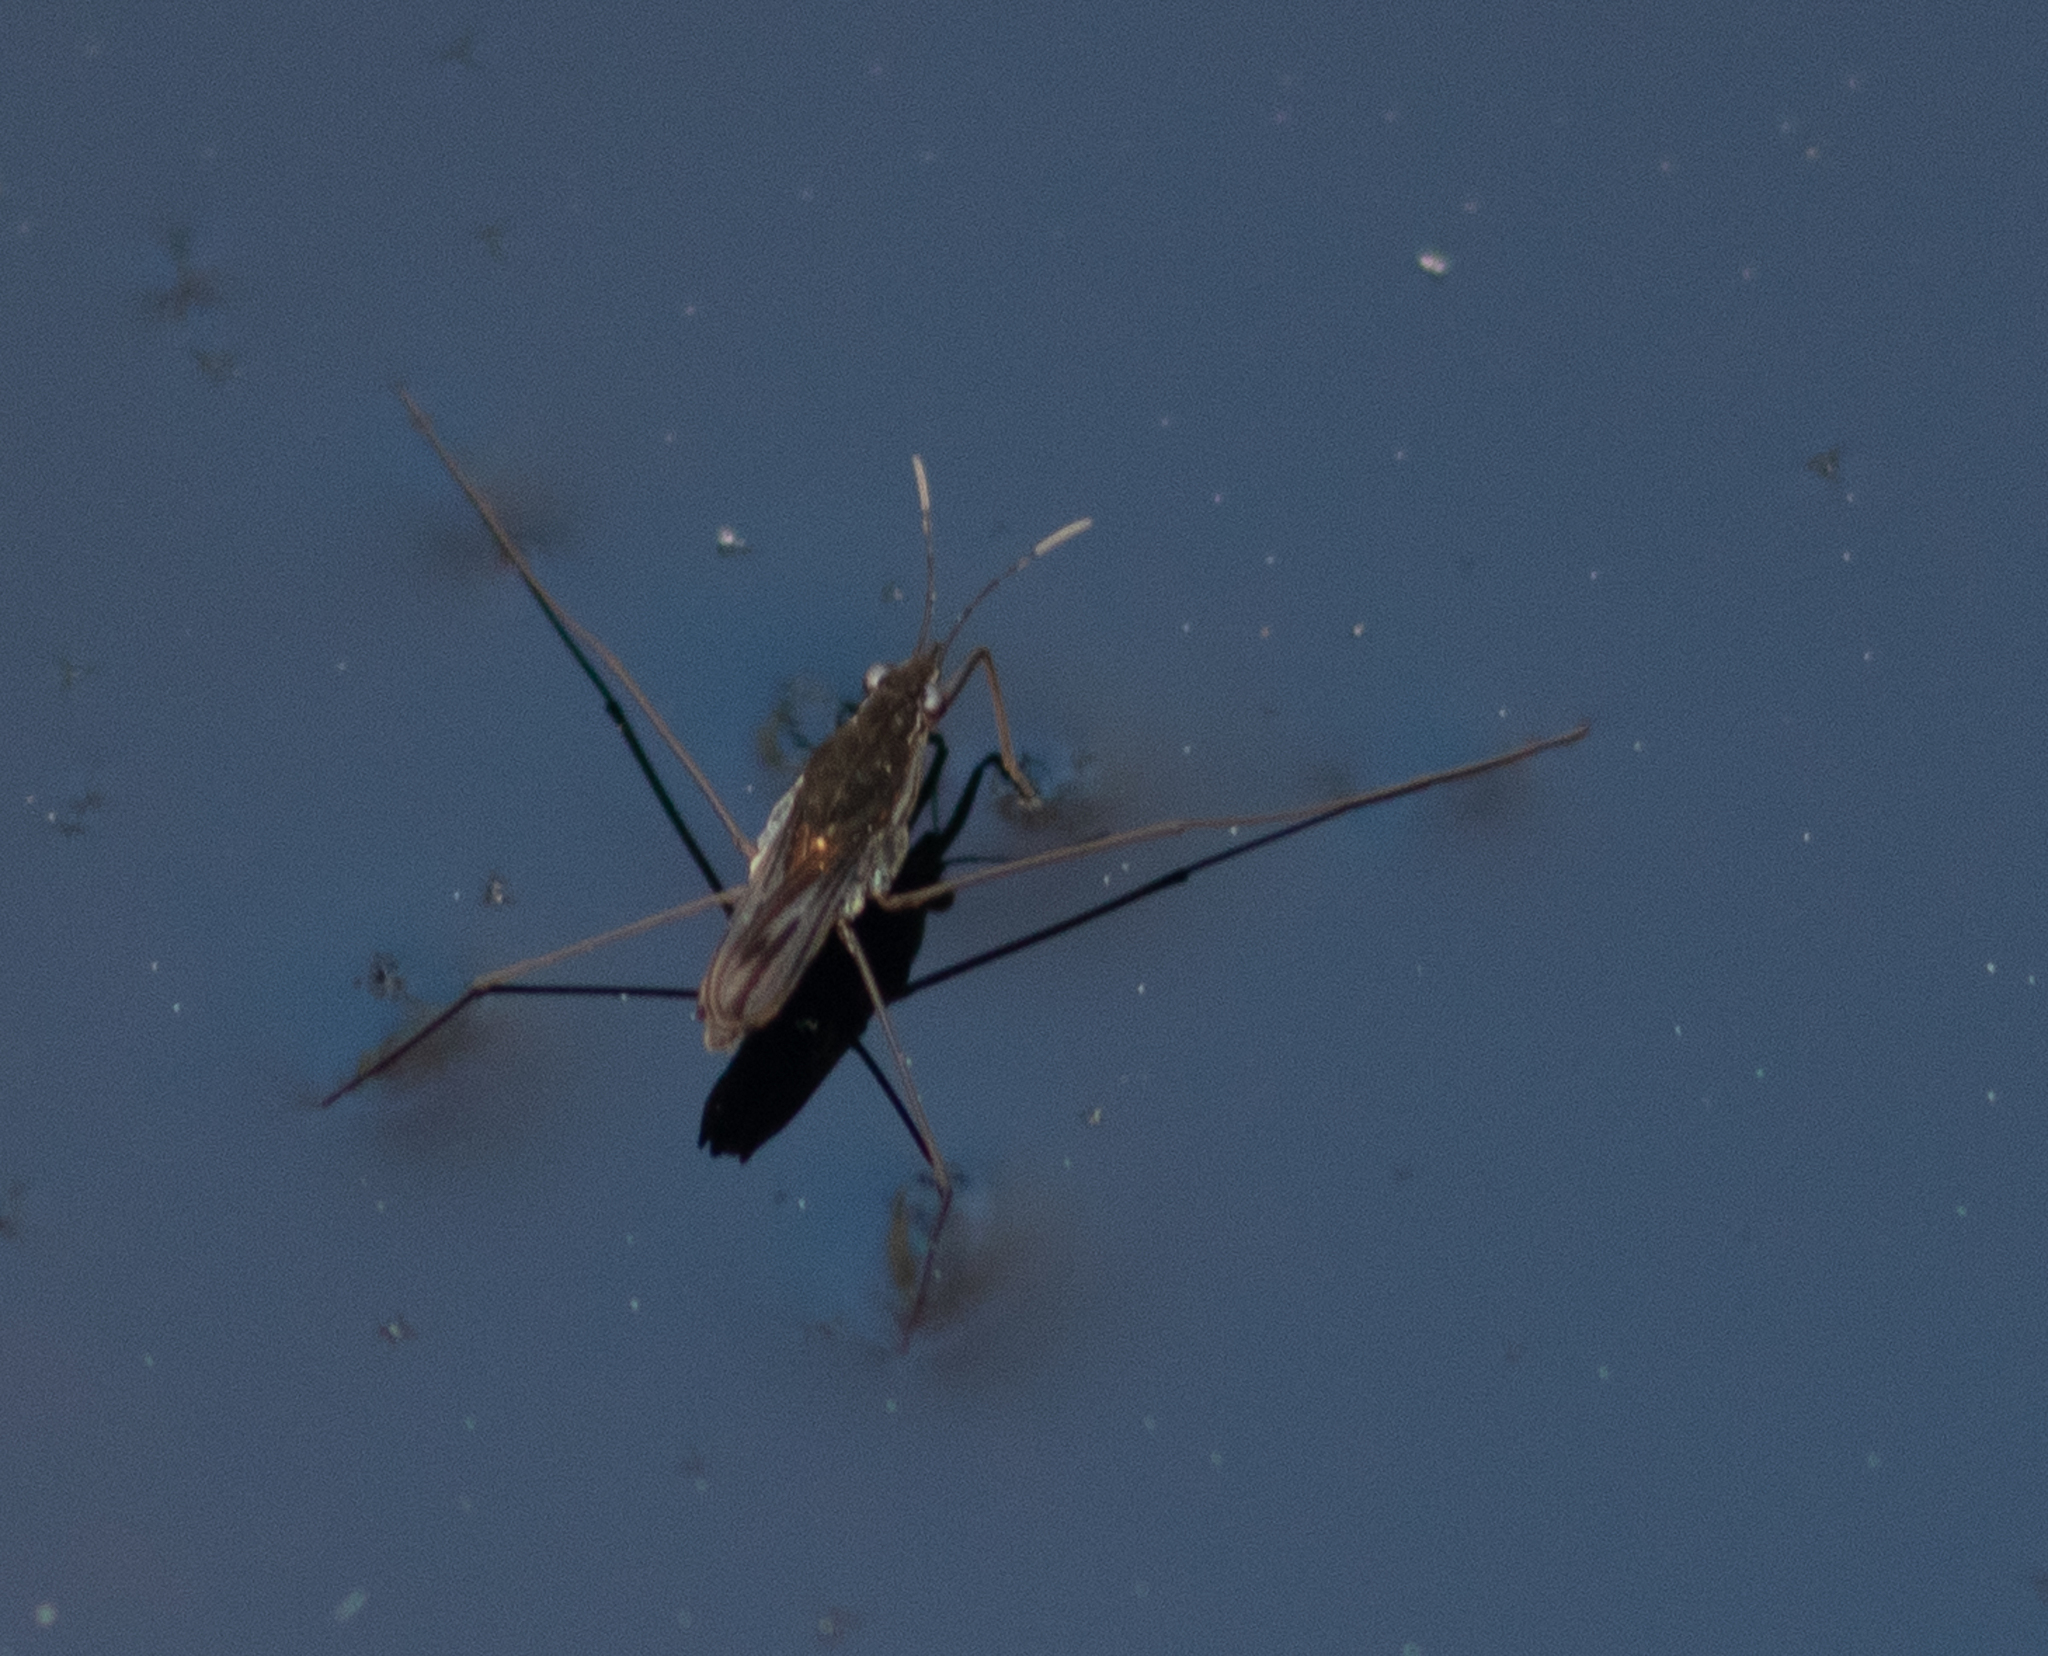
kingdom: Animalia
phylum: Arthropoda
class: Insecta
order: Hemiptera
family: Gerridae
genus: Gerris
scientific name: Gerris
